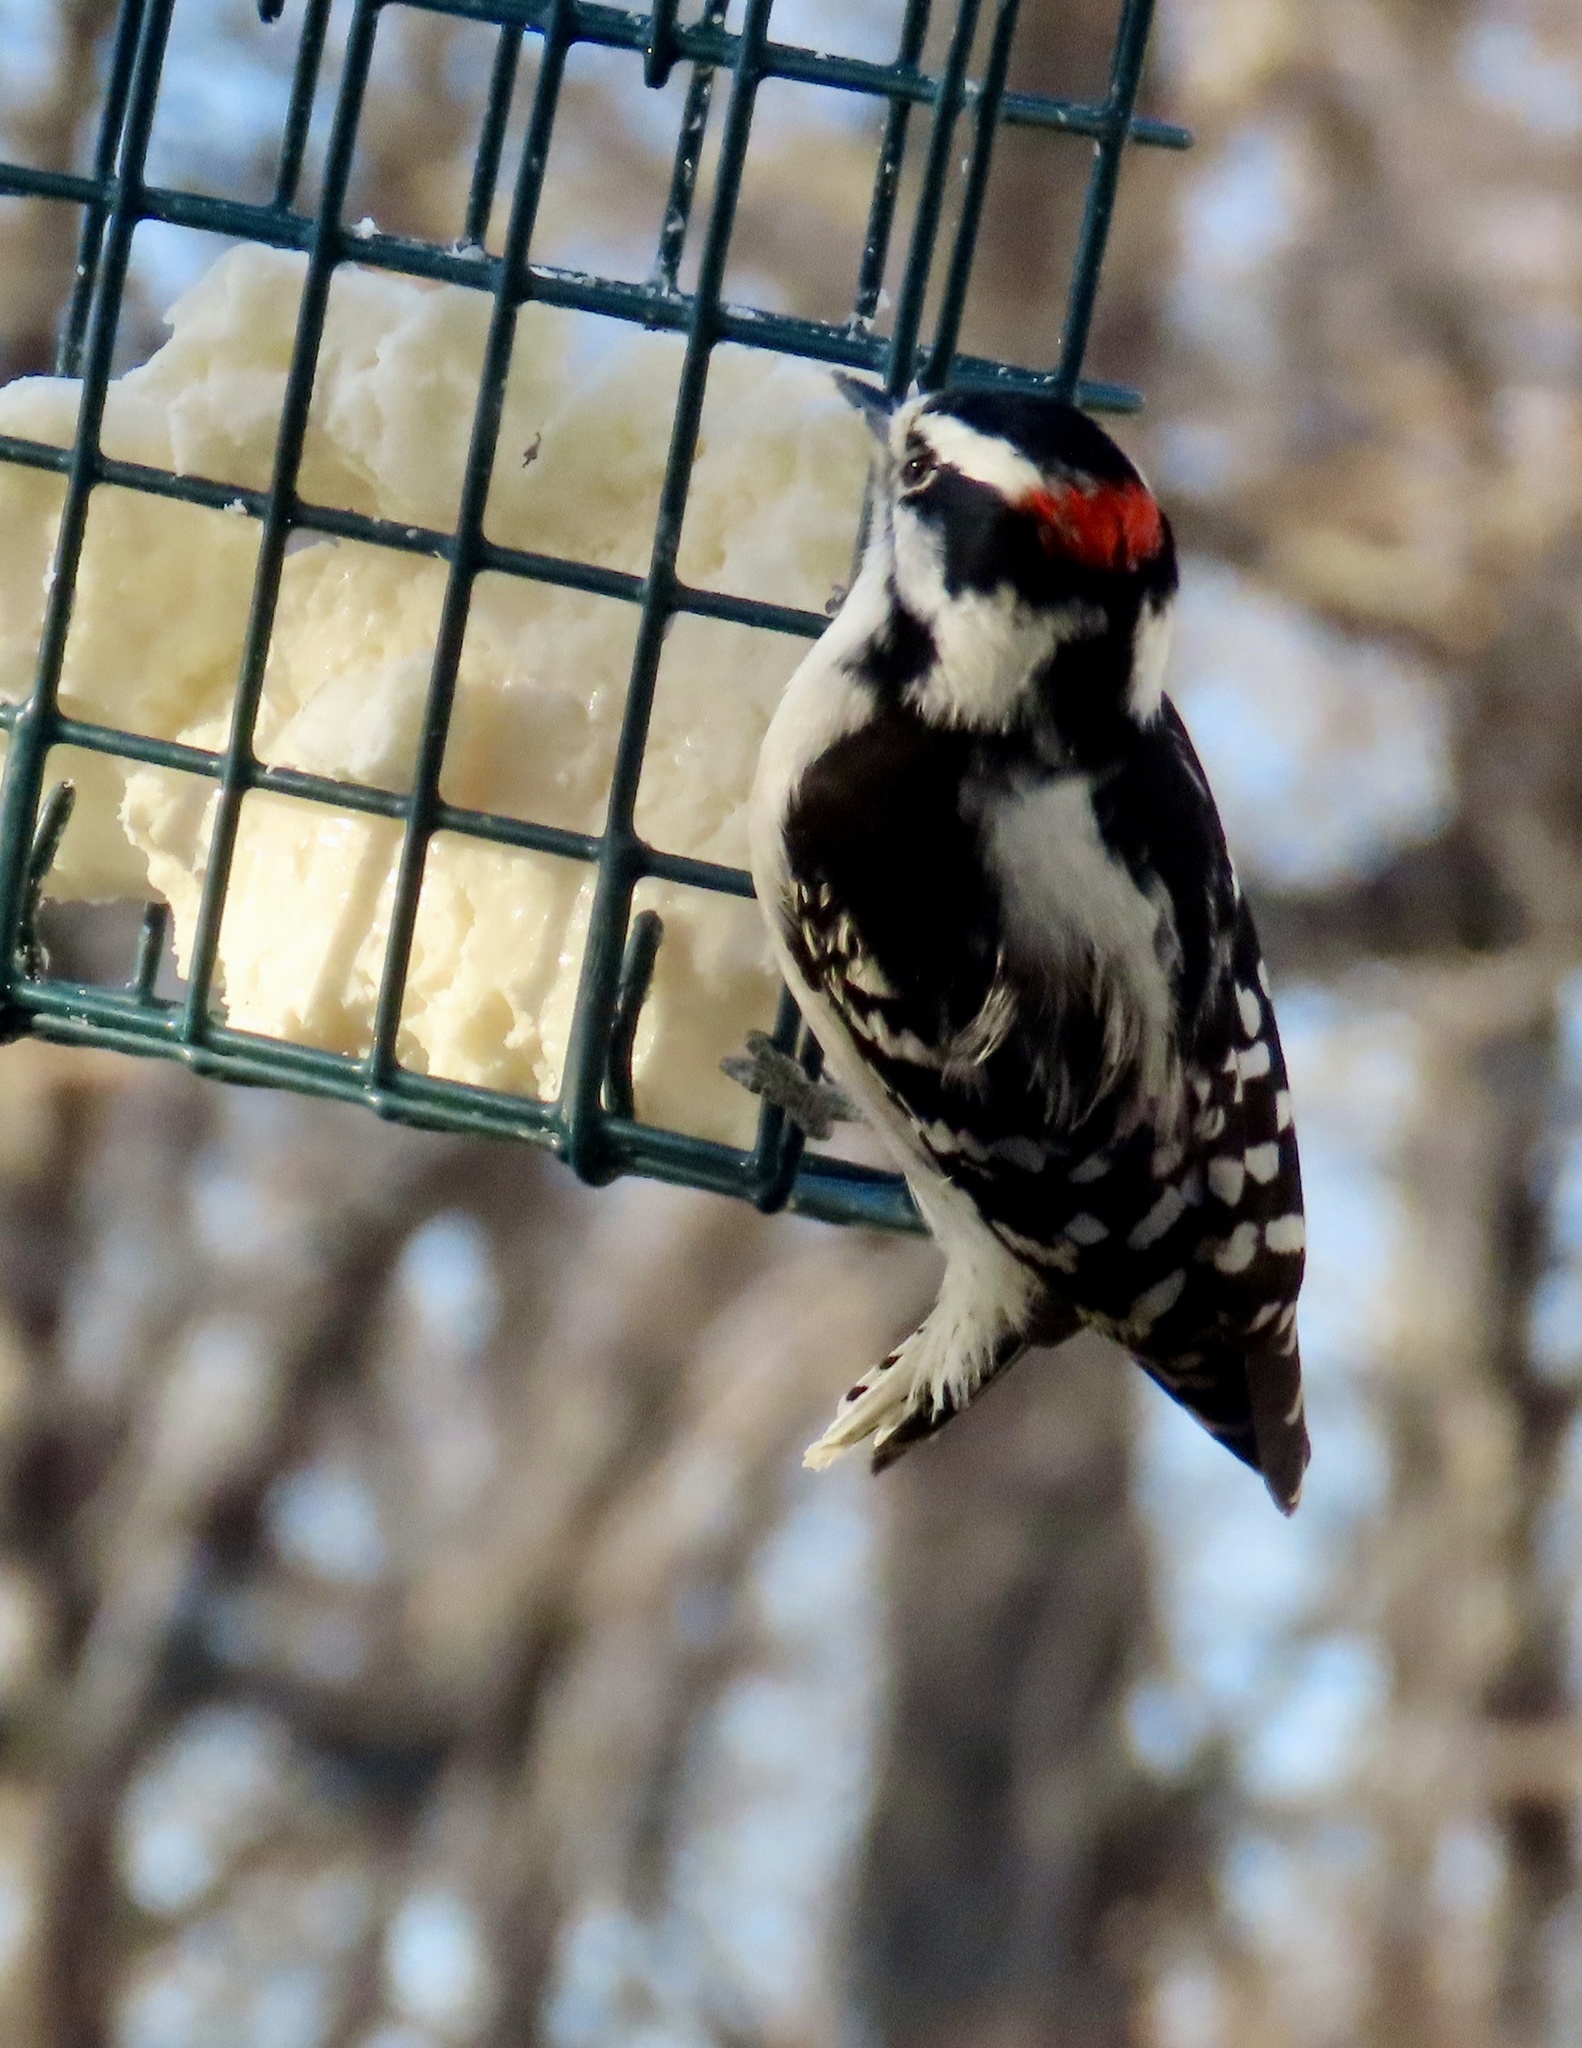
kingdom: Animalia
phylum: Chordata
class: Aves
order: Piciformes
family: Picidae
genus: Dryobates
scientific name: Dryobates pubescens
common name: Downy woodpecker
